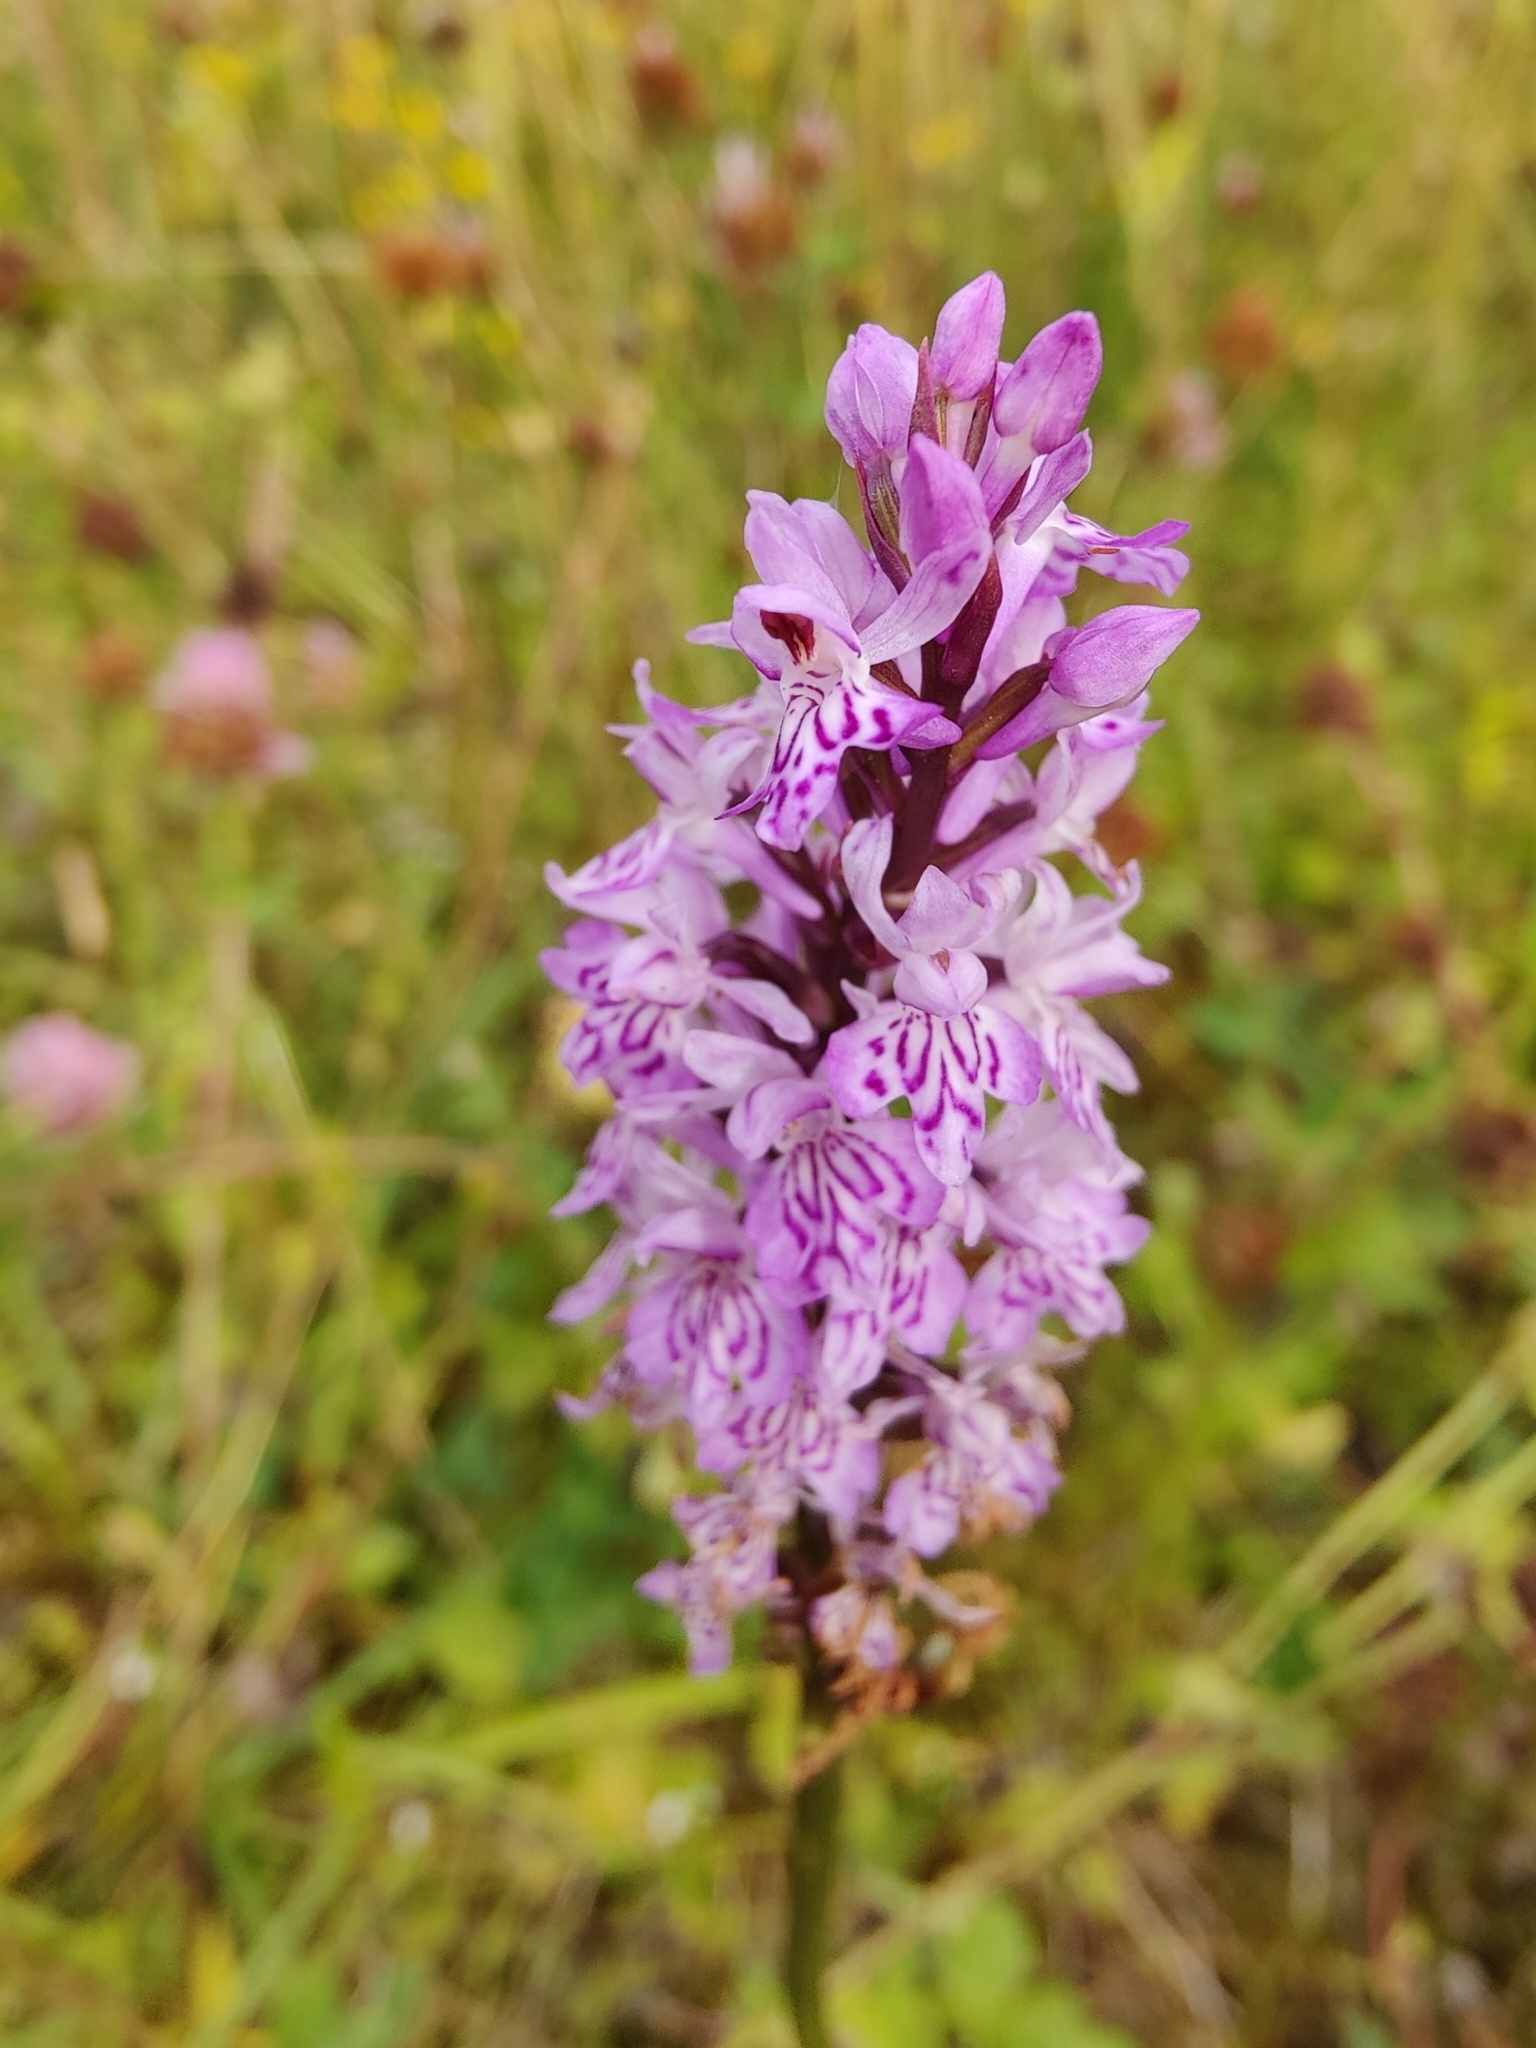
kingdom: Plantae
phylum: Tracheophyta
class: Liliopsida
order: Asparagales
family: Orchidaceae
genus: Dactylorhiza
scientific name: Dactylorhiza maculata
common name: Heath spotted-orchid
